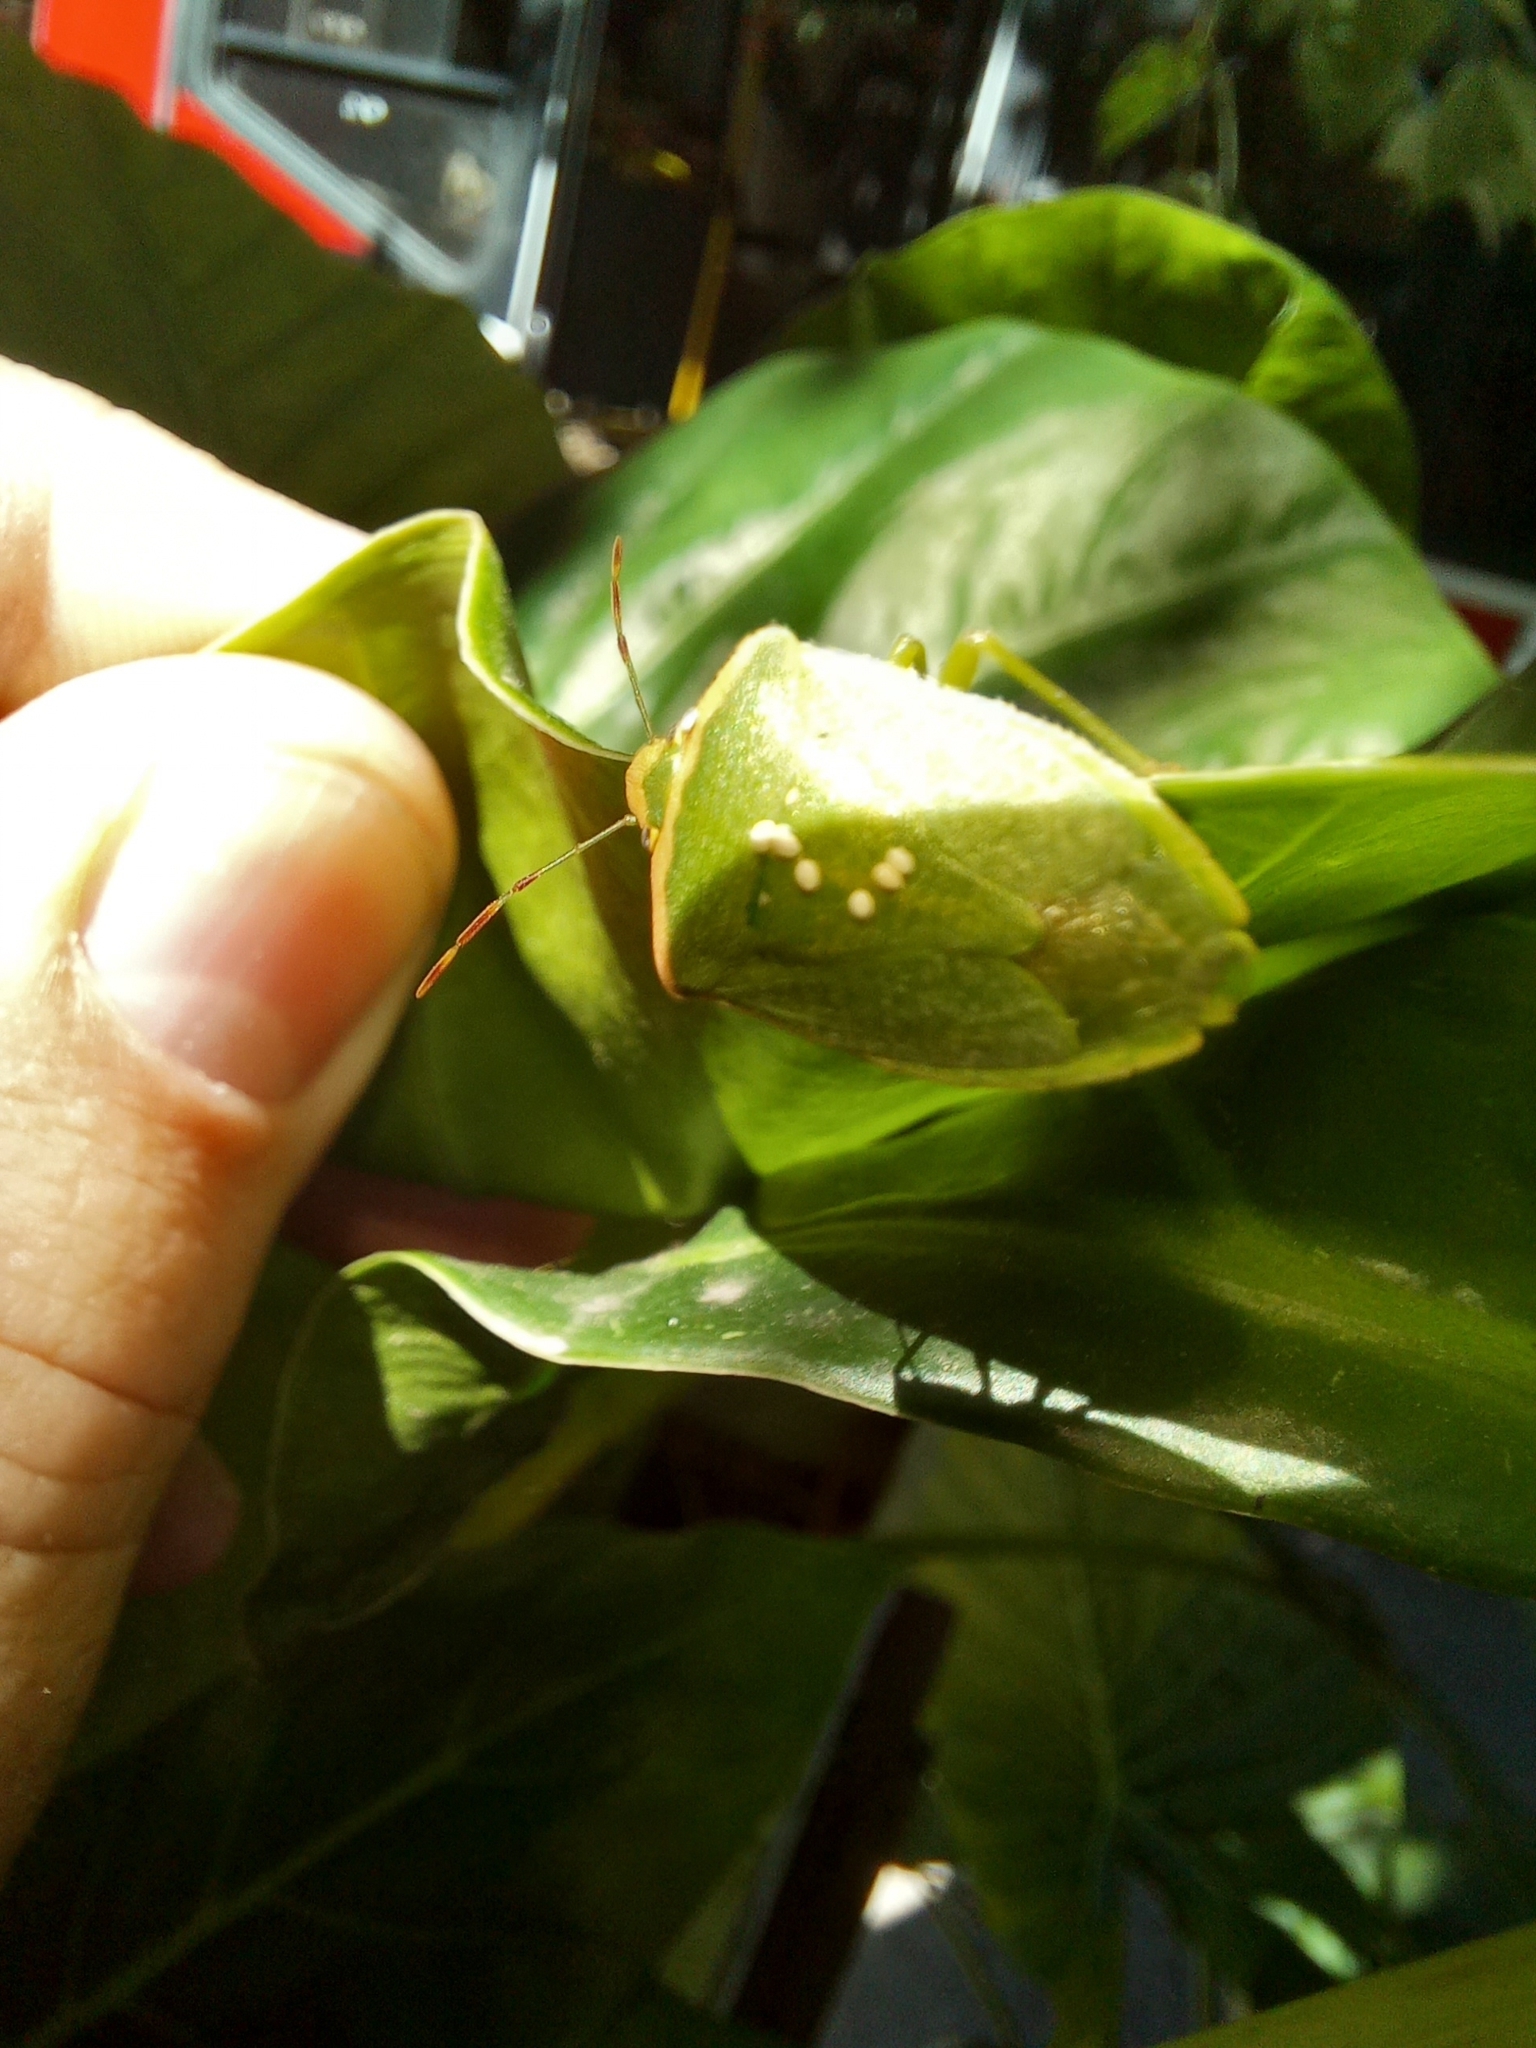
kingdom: Animalia
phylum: Arthropoda
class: Insecta
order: Hemiptera
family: Pentatomidae
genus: Nezara
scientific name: Nezara viridula
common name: Southern green stink bug
